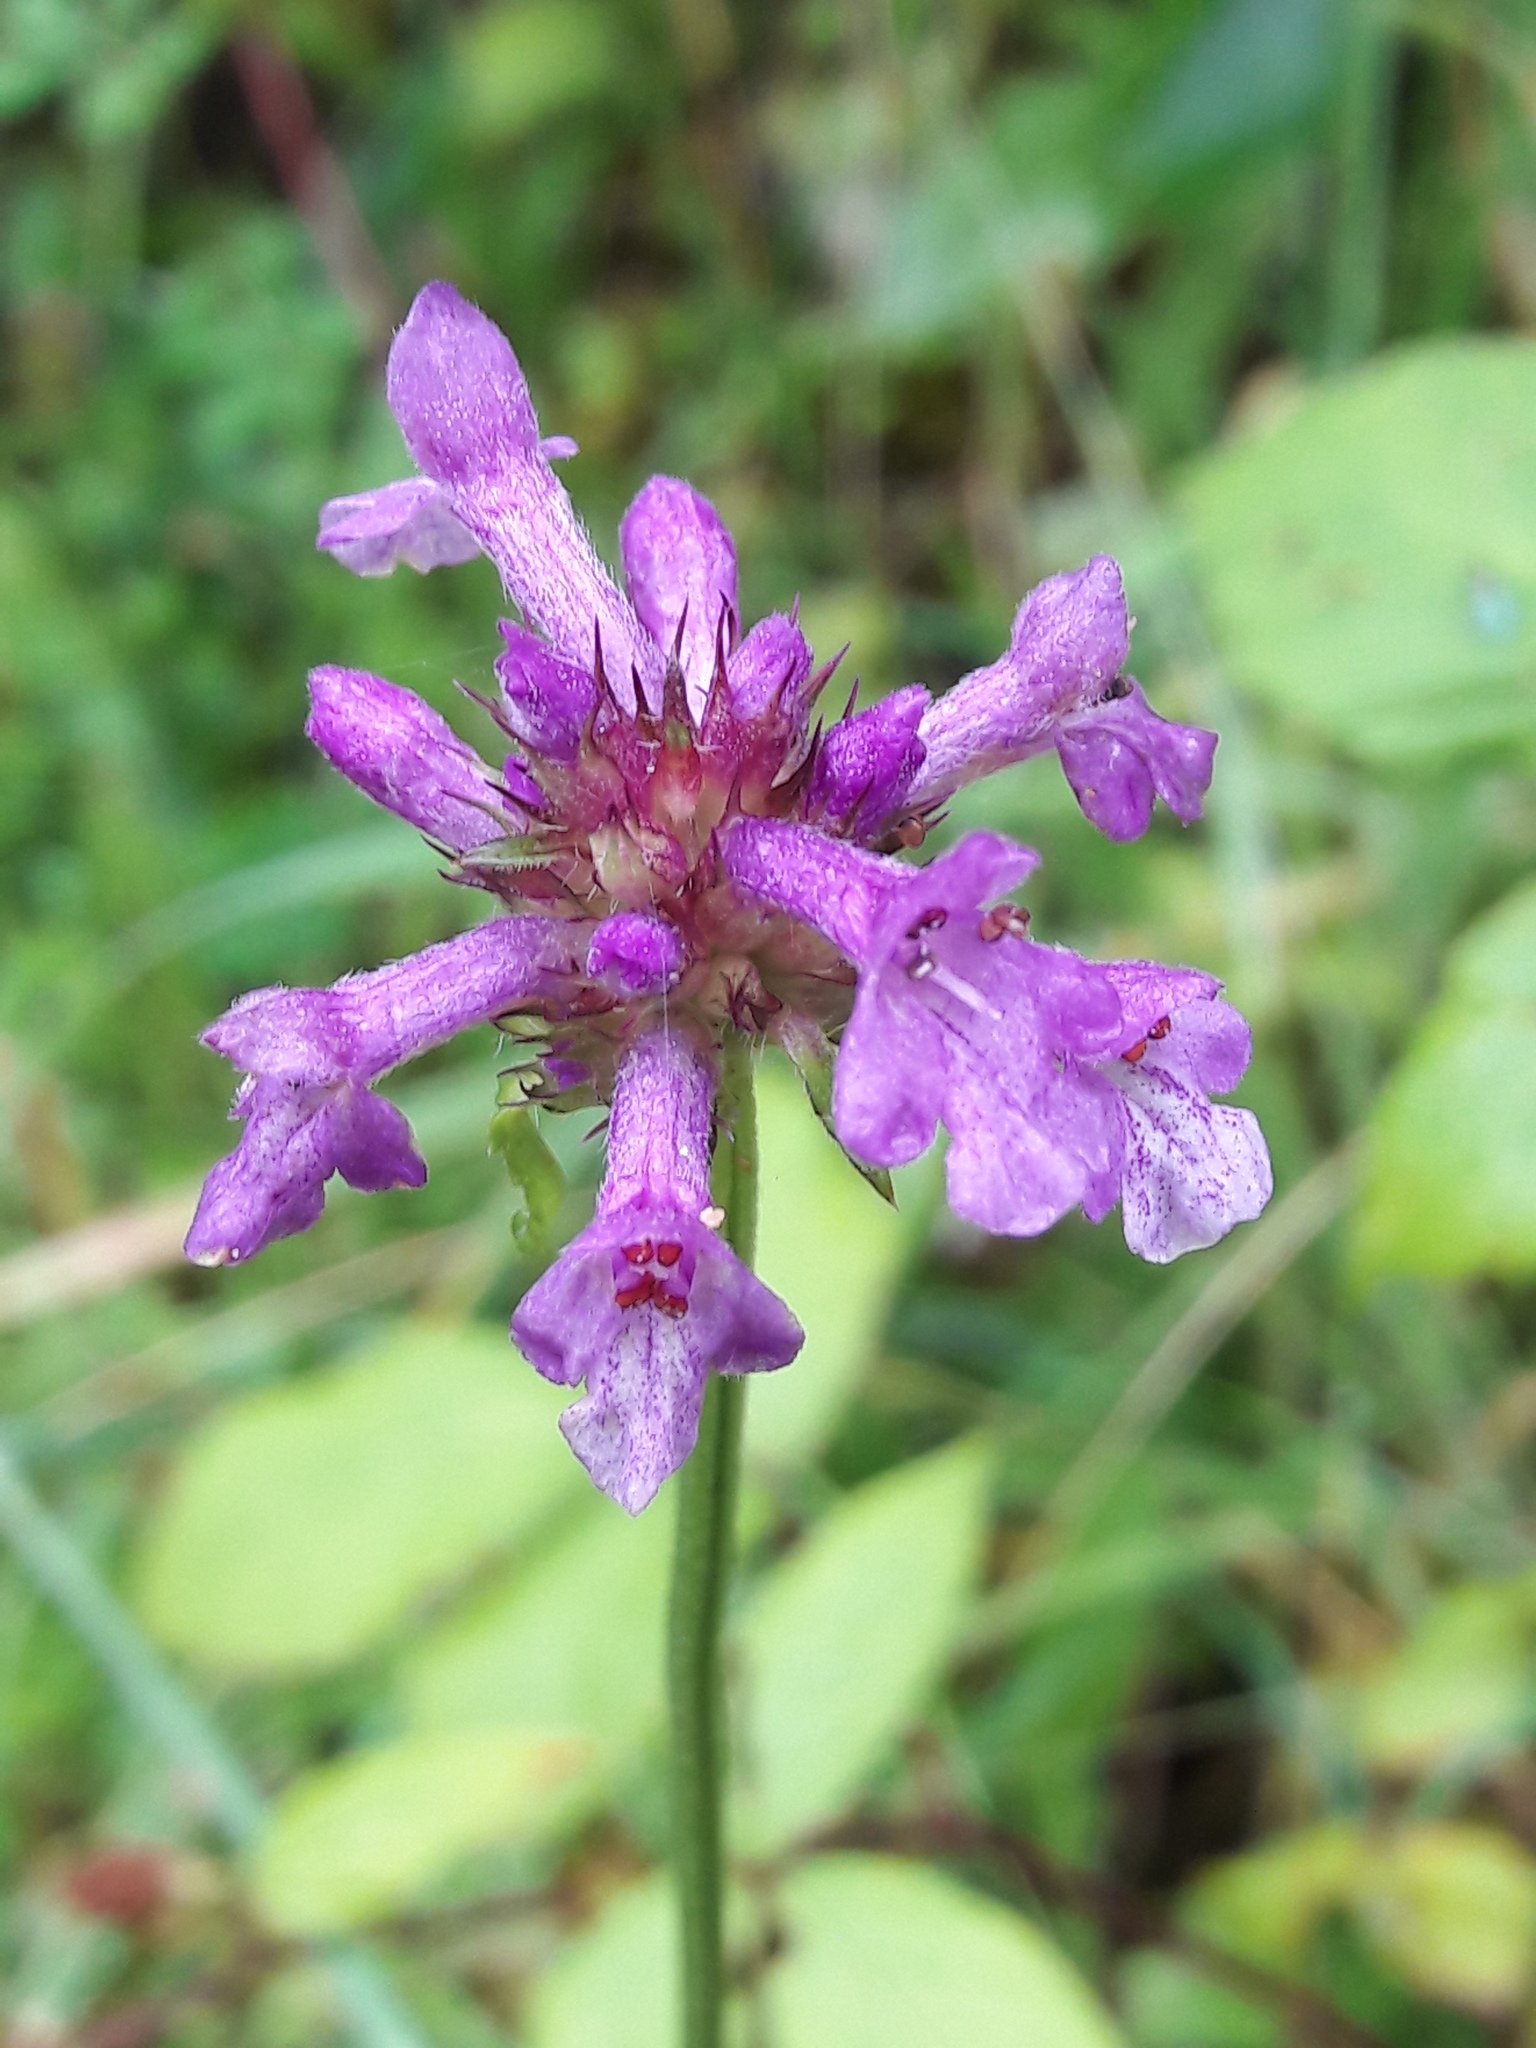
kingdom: Plantae
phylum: Tracheophyta
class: Magnoliopsida
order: Lamiales
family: Lamiaceae
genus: Betonica
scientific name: Betonica officinalis
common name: Bishop's-wort
